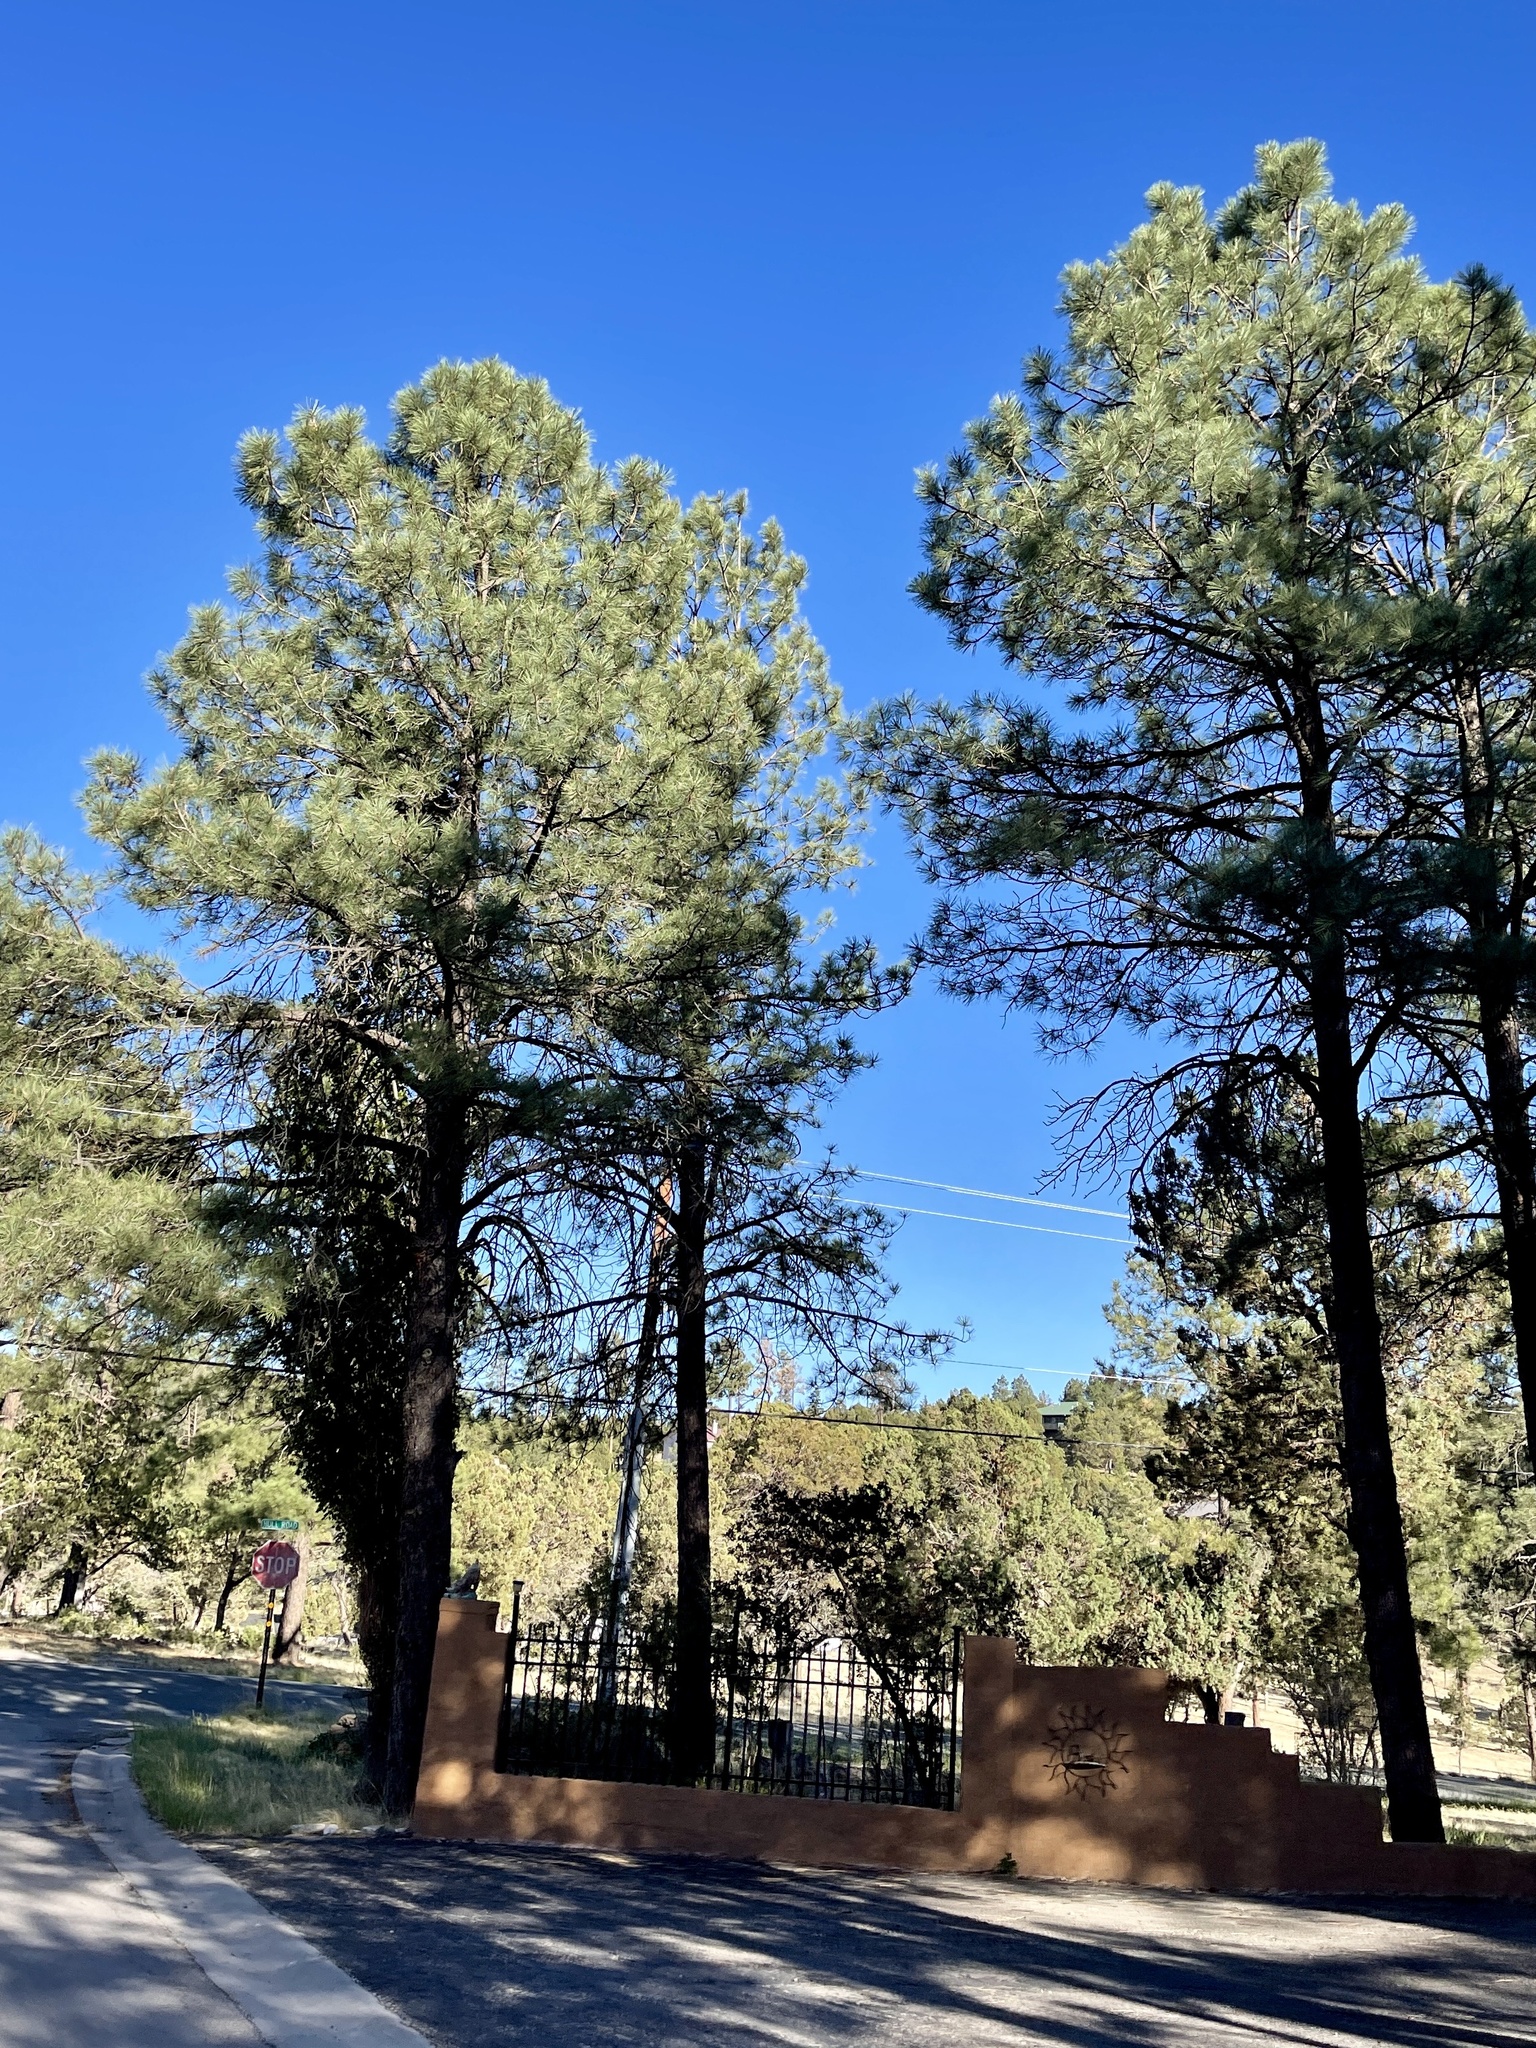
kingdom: Plantae
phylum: Tracheophyta
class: Pinopsida
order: Pinales
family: Pinaceae
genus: Pinus
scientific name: Pinus ponderosa
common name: Western yellow-pine
